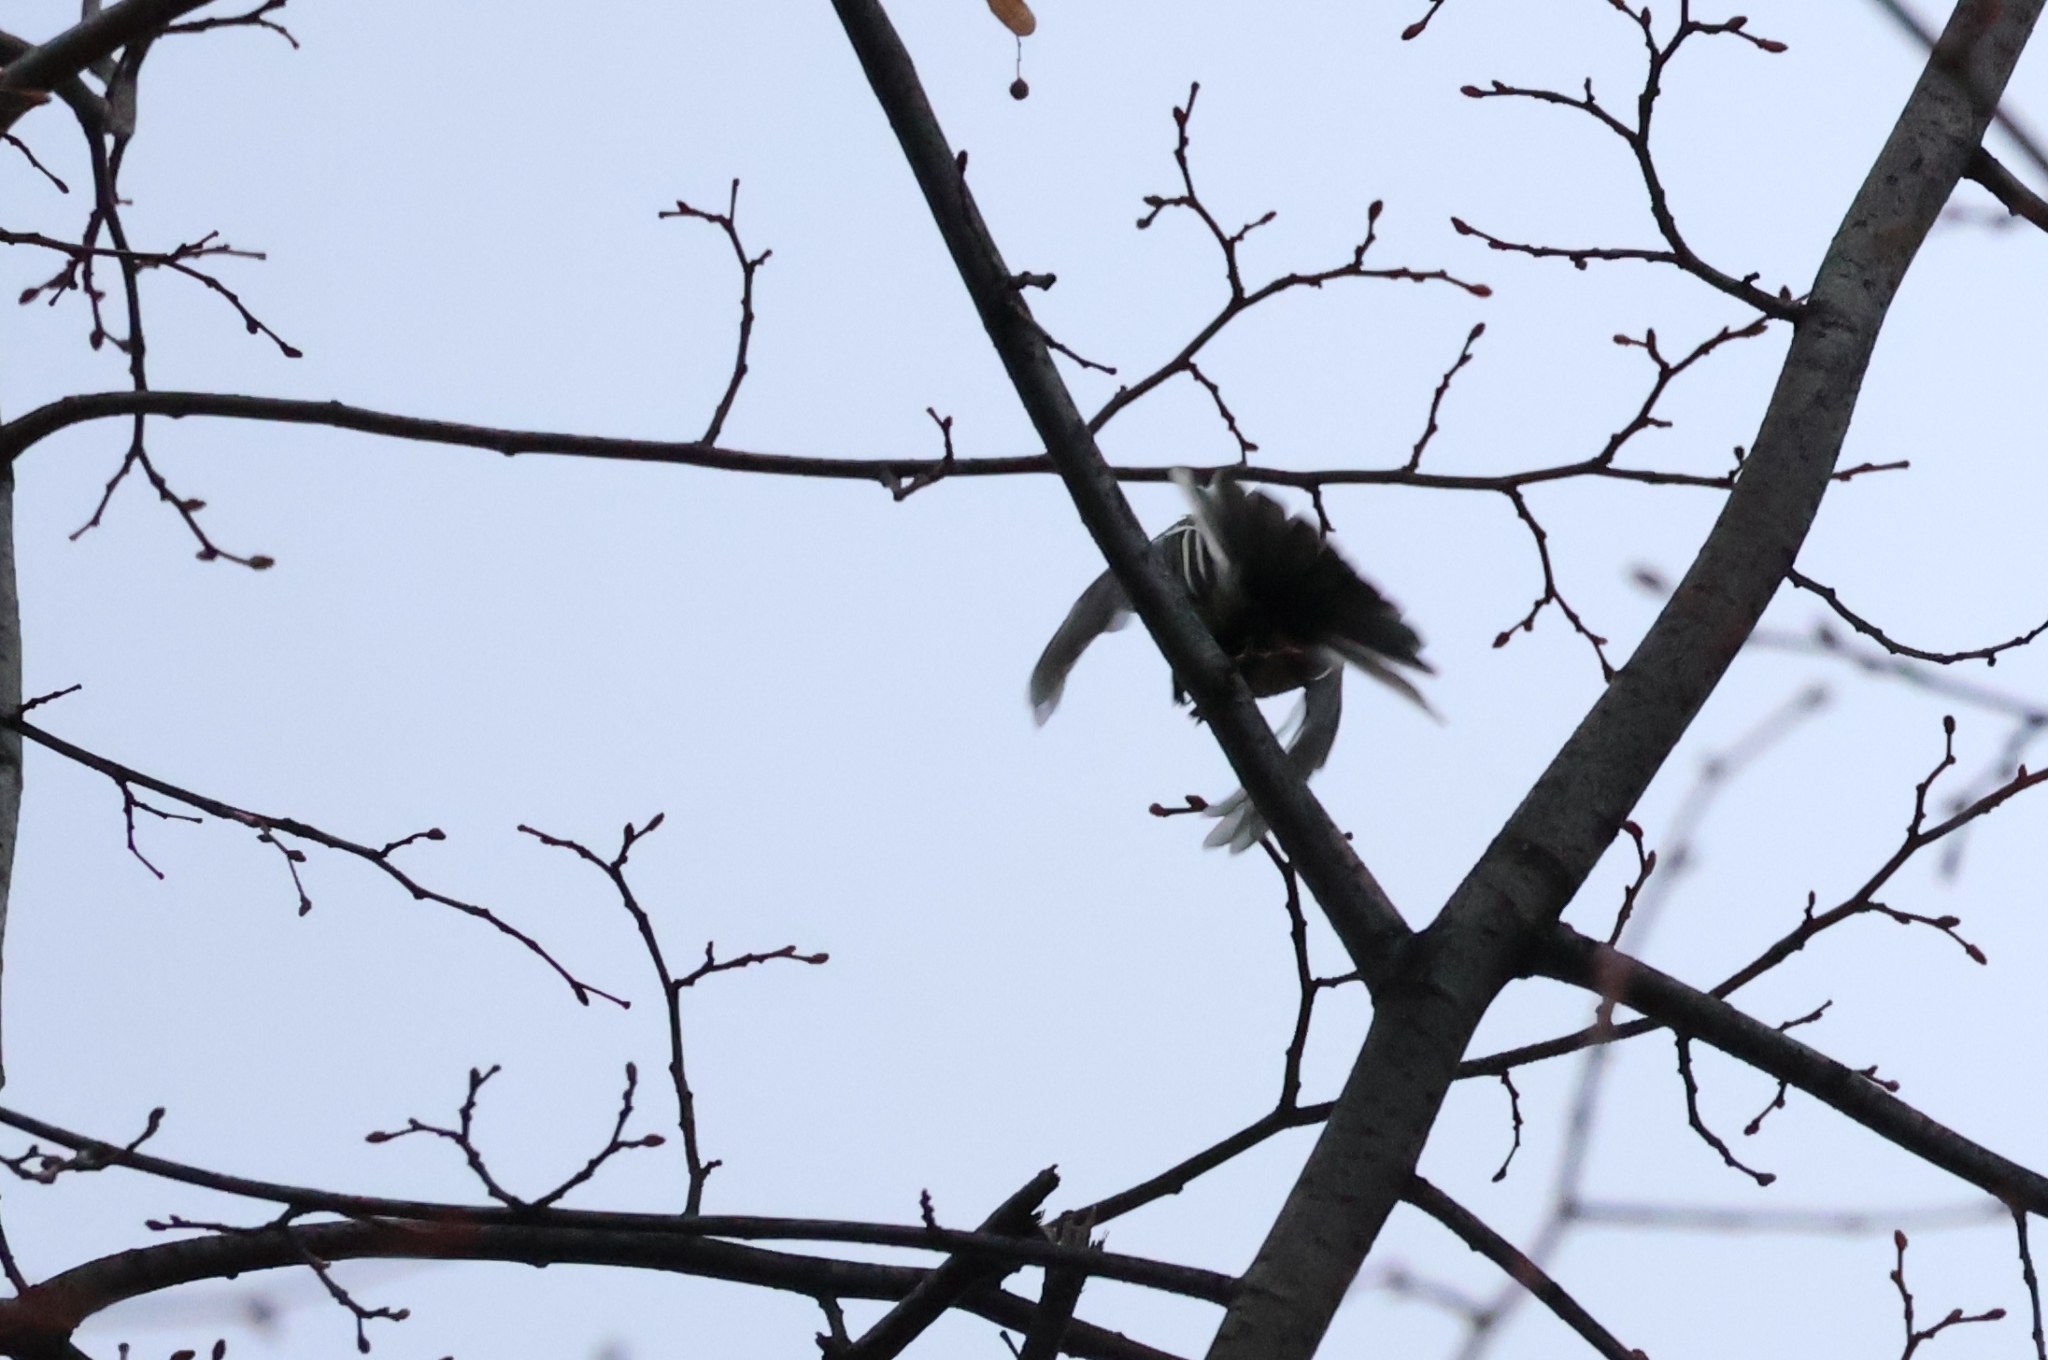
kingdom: Animalia
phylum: Chordata
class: Aves
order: Passeriformes
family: Paridae
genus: Parus
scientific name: Parus major
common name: Great tit
